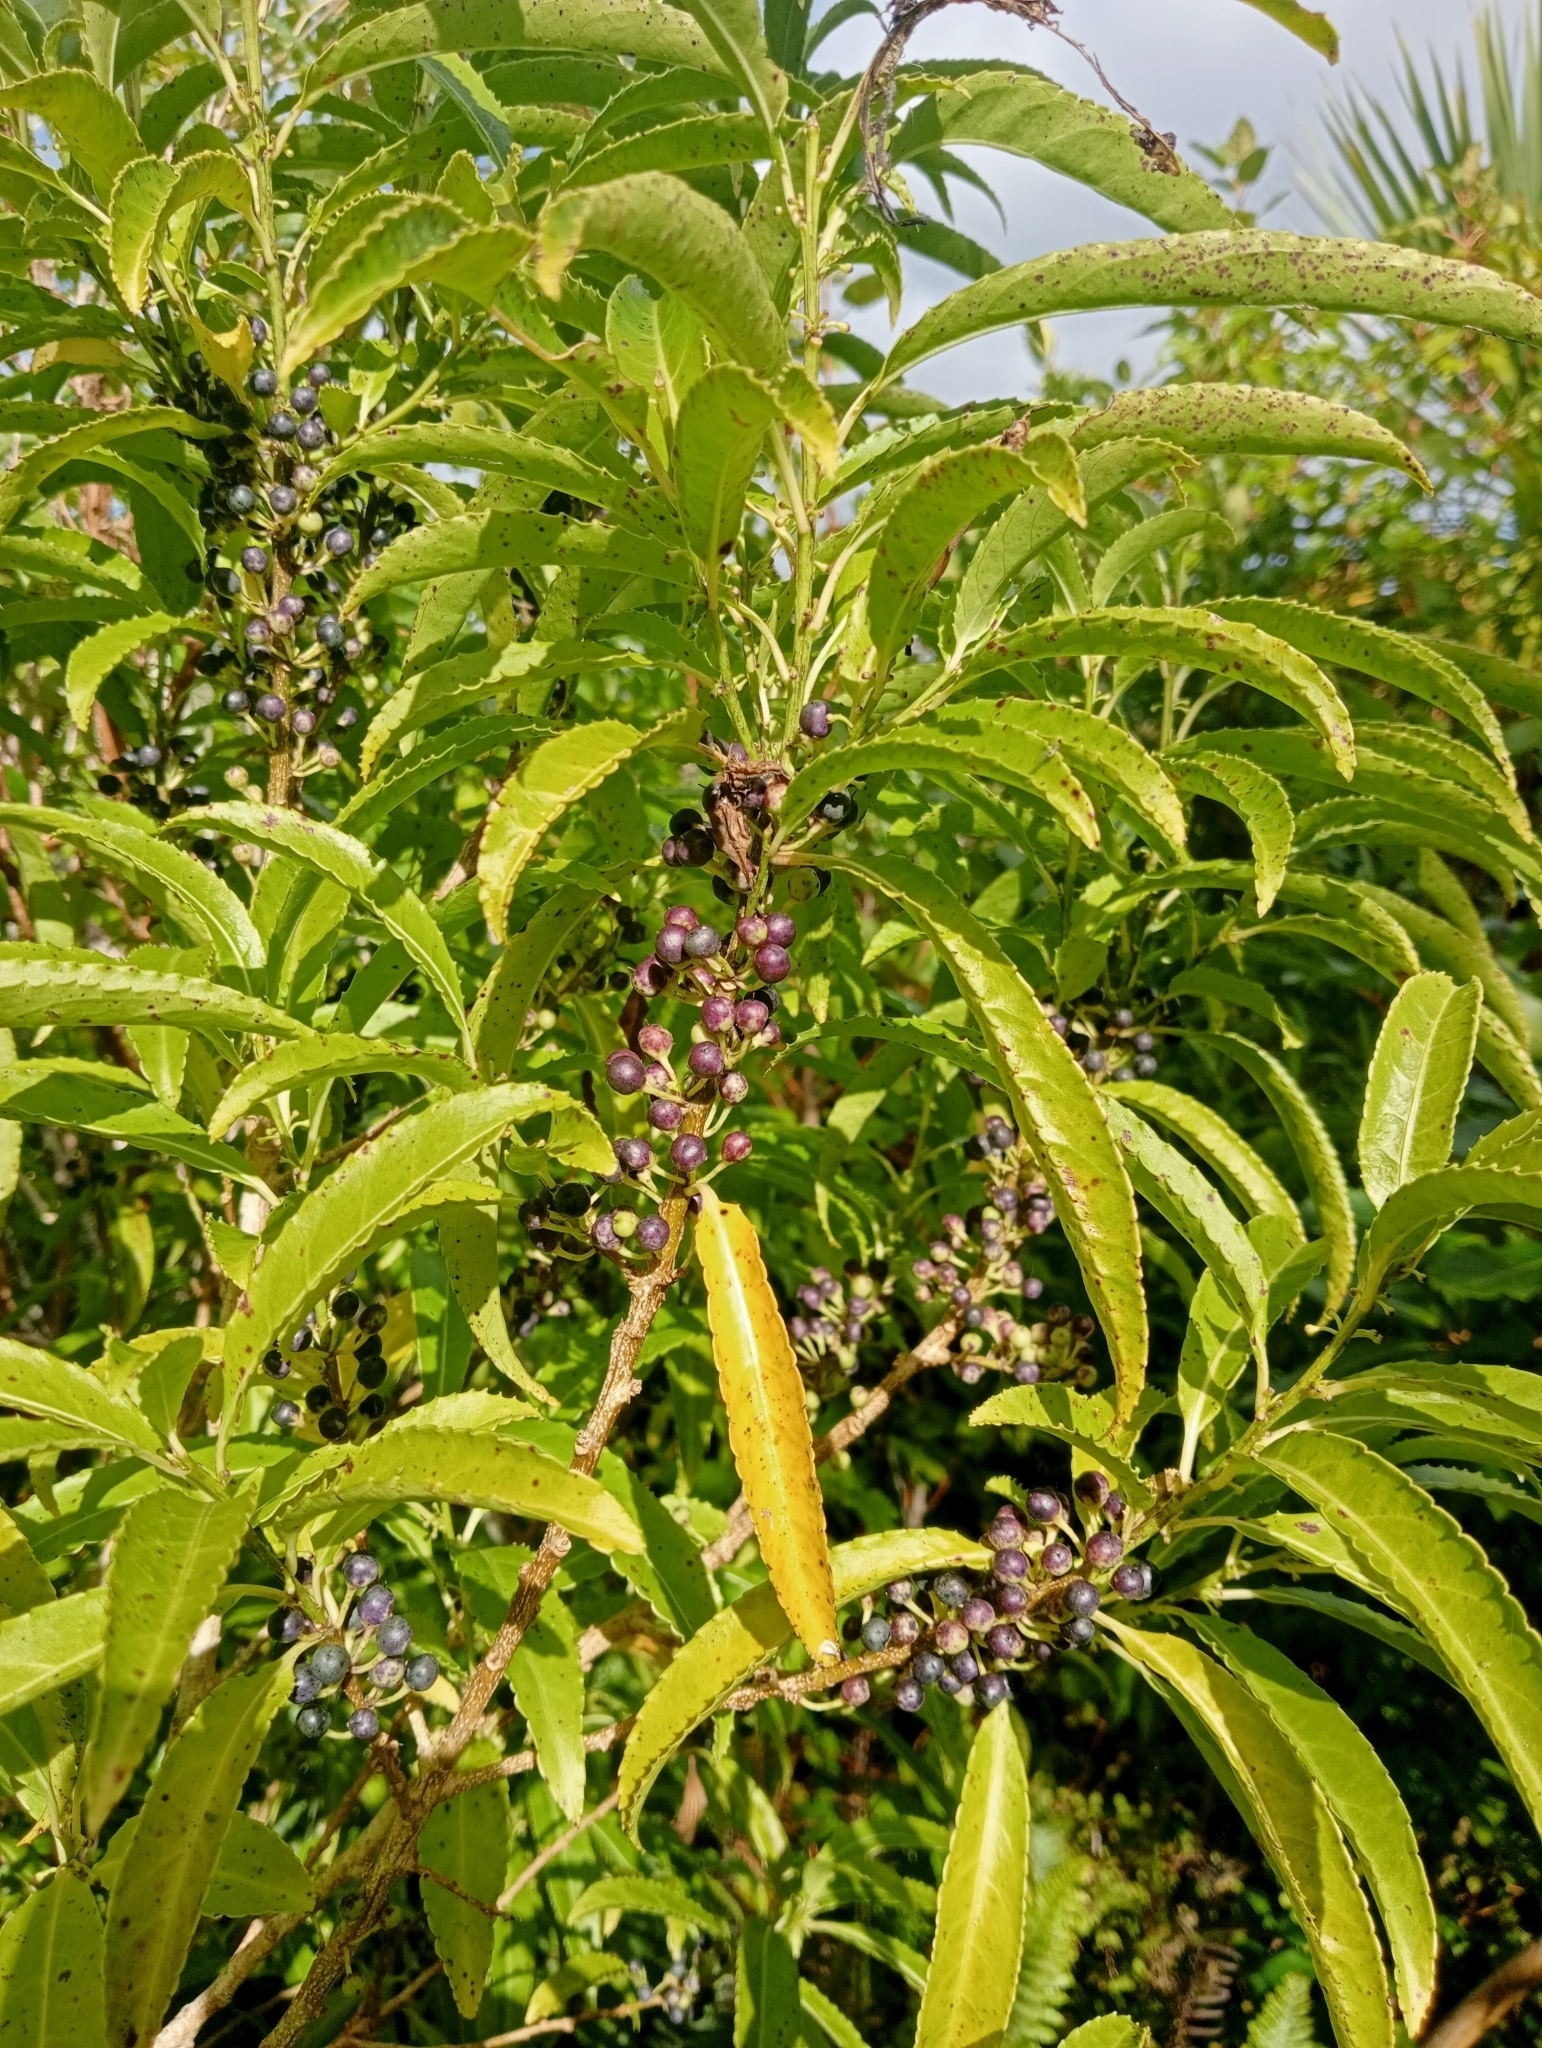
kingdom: Plantae
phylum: Tracheophyta
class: Magnoliopsida
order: Malpighiales
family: Violaceae
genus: Melicytus
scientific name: Melicytus lanceolatus
